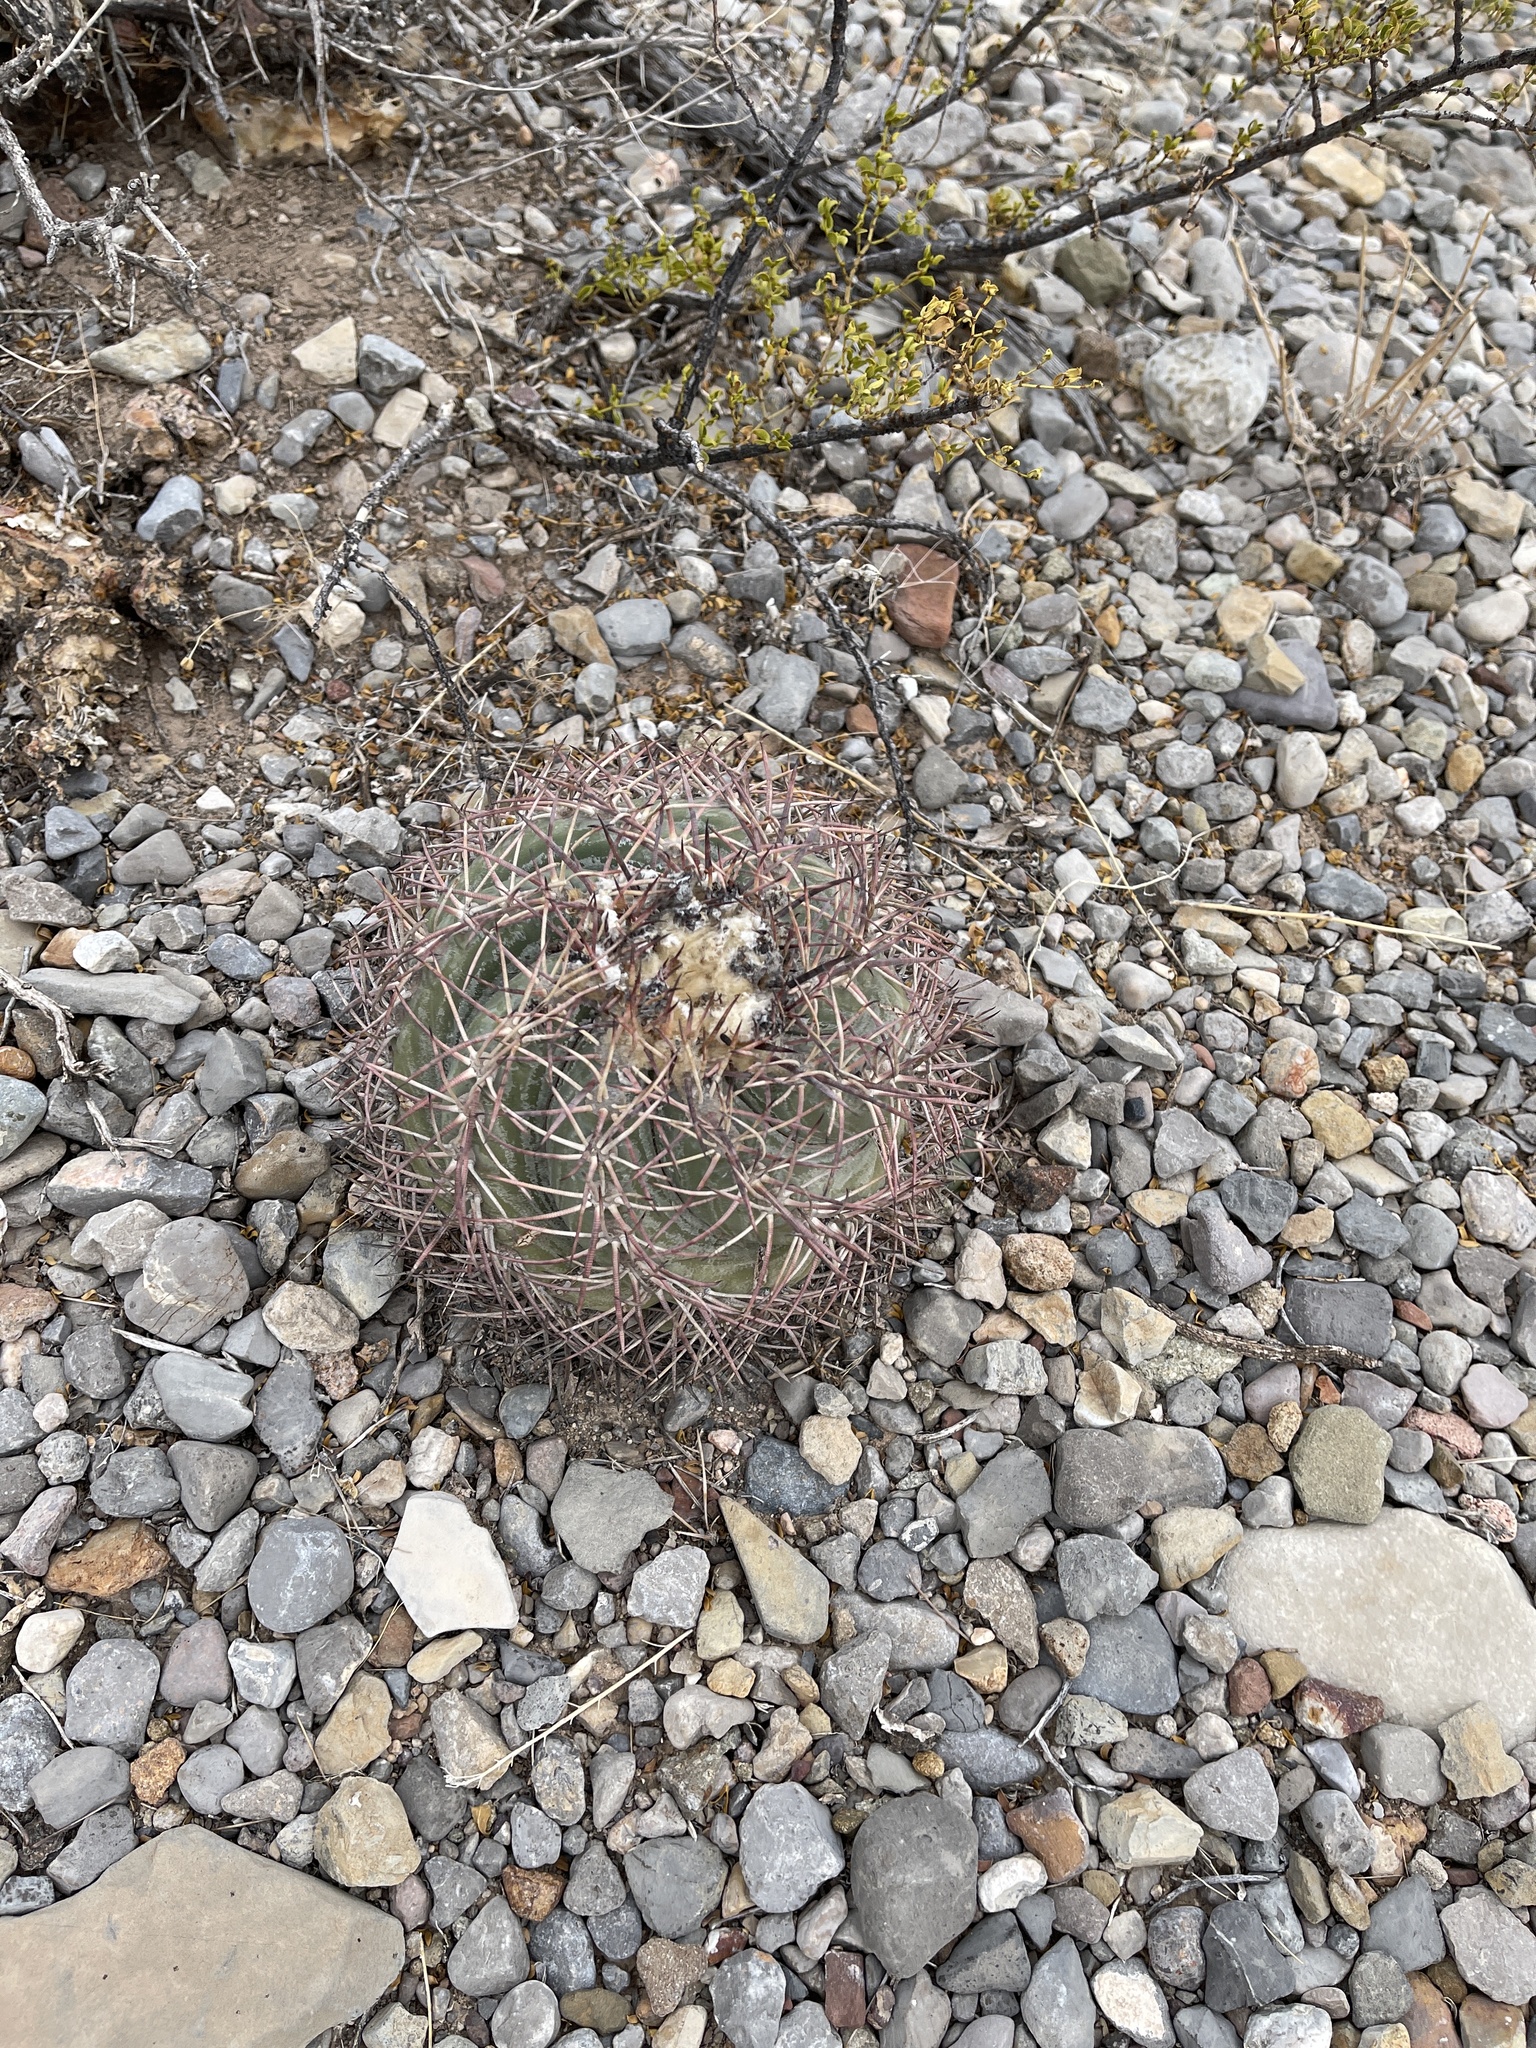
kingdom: Plantae
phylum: Tracheophyta
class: Magnoliopsida
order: Caryophyllales
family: Cactaceae
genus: Echinocactus
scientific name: Echinocactus horizonthalonius
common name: Devilshead
